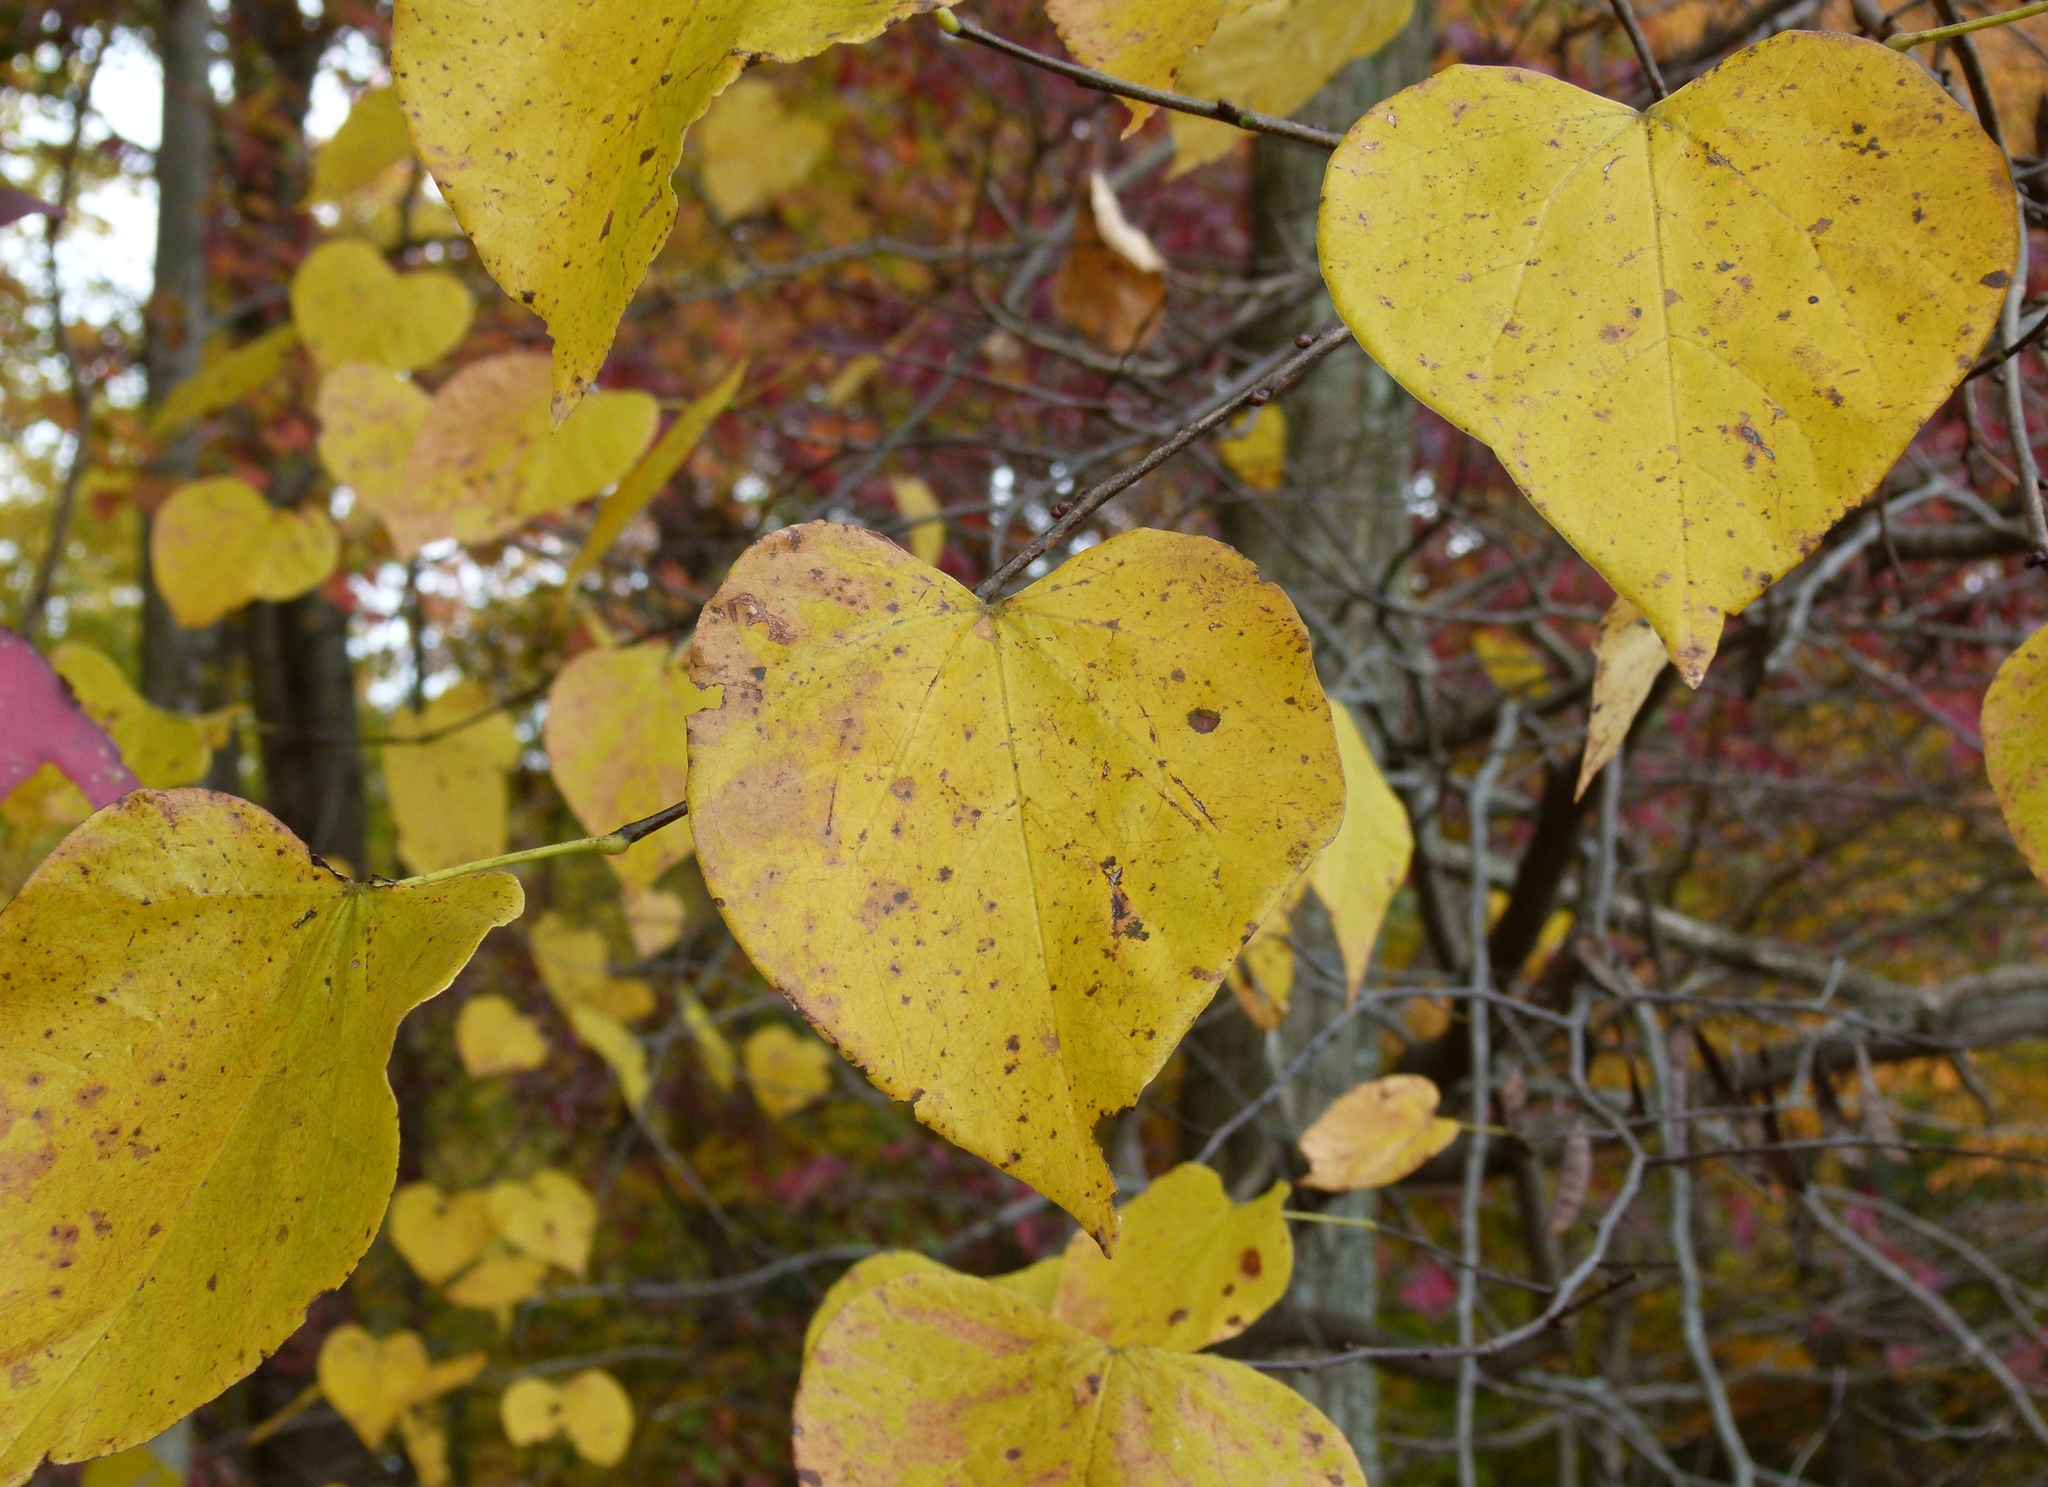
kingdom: Plantae
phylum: Tracheophyta
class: Magnoliopsida
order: Fabales
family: Fabaceae
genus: Cercis
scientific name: Cercis canadensis
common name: Eastern redbud
